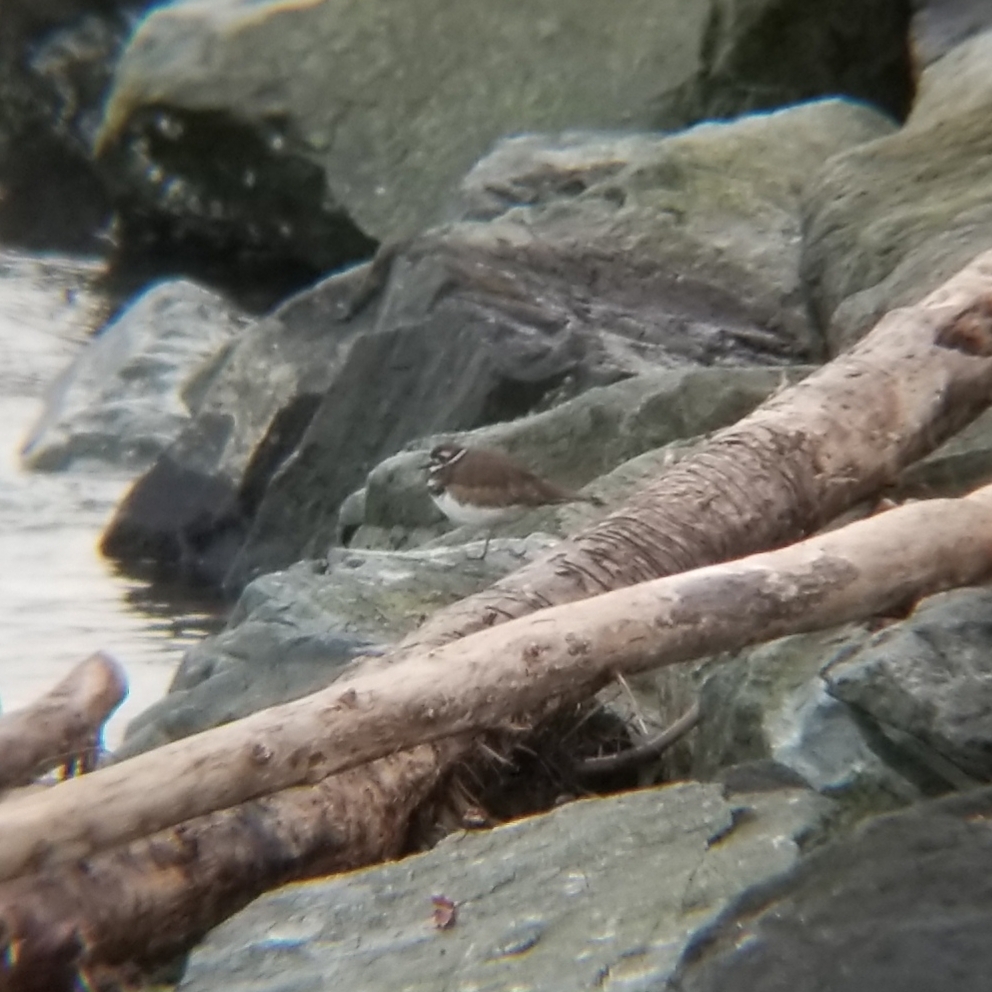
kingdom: Animalia
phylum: Chordata
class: Aves
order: Charadriiformes
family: Charadriidae
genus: Charadrius
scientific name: Charadrius vociferus
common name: Killdeer
